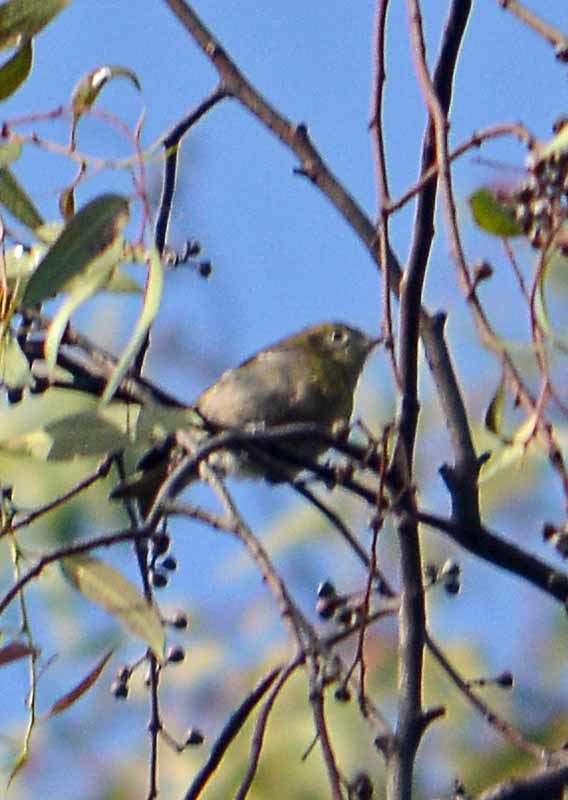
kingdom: Animalia
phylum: Chordata
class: Aves
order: Passeriformes
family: Peucedramidae
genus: Peucedramus
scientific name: Peucedramus taeniatus
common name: Olive warbler
